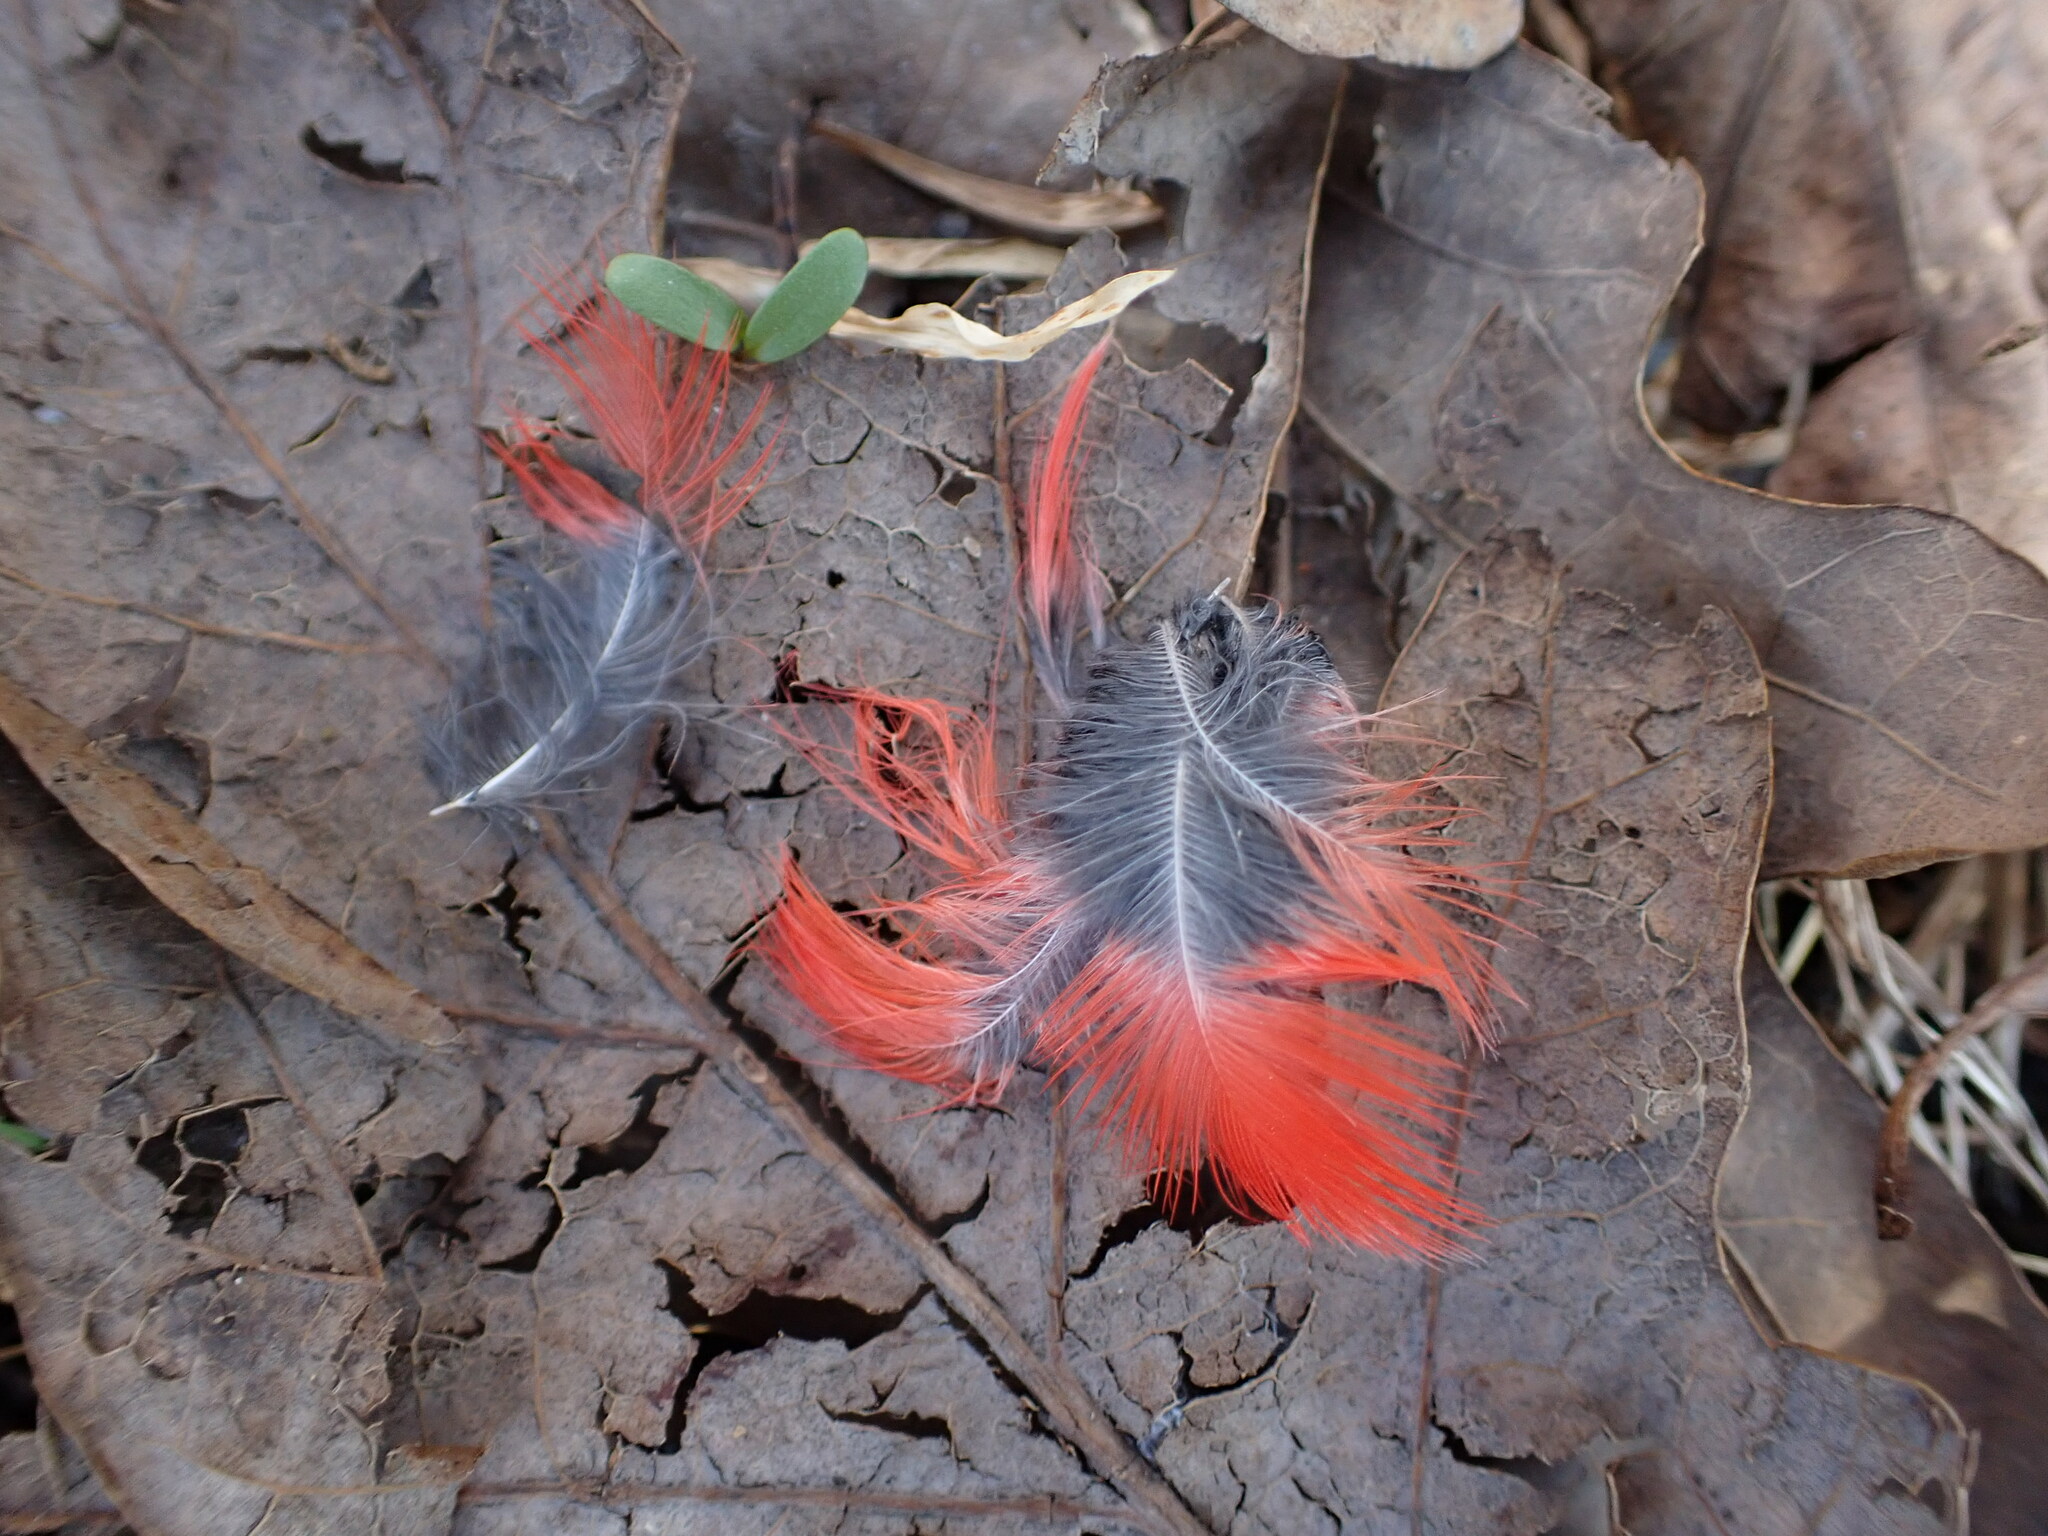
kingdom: Animalia
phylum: Chordata
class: Aves
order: Passeriformes
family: Cardinalidae
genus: Cardinalis
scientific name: Cardinalis cardinalis
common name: Northern cardinal
